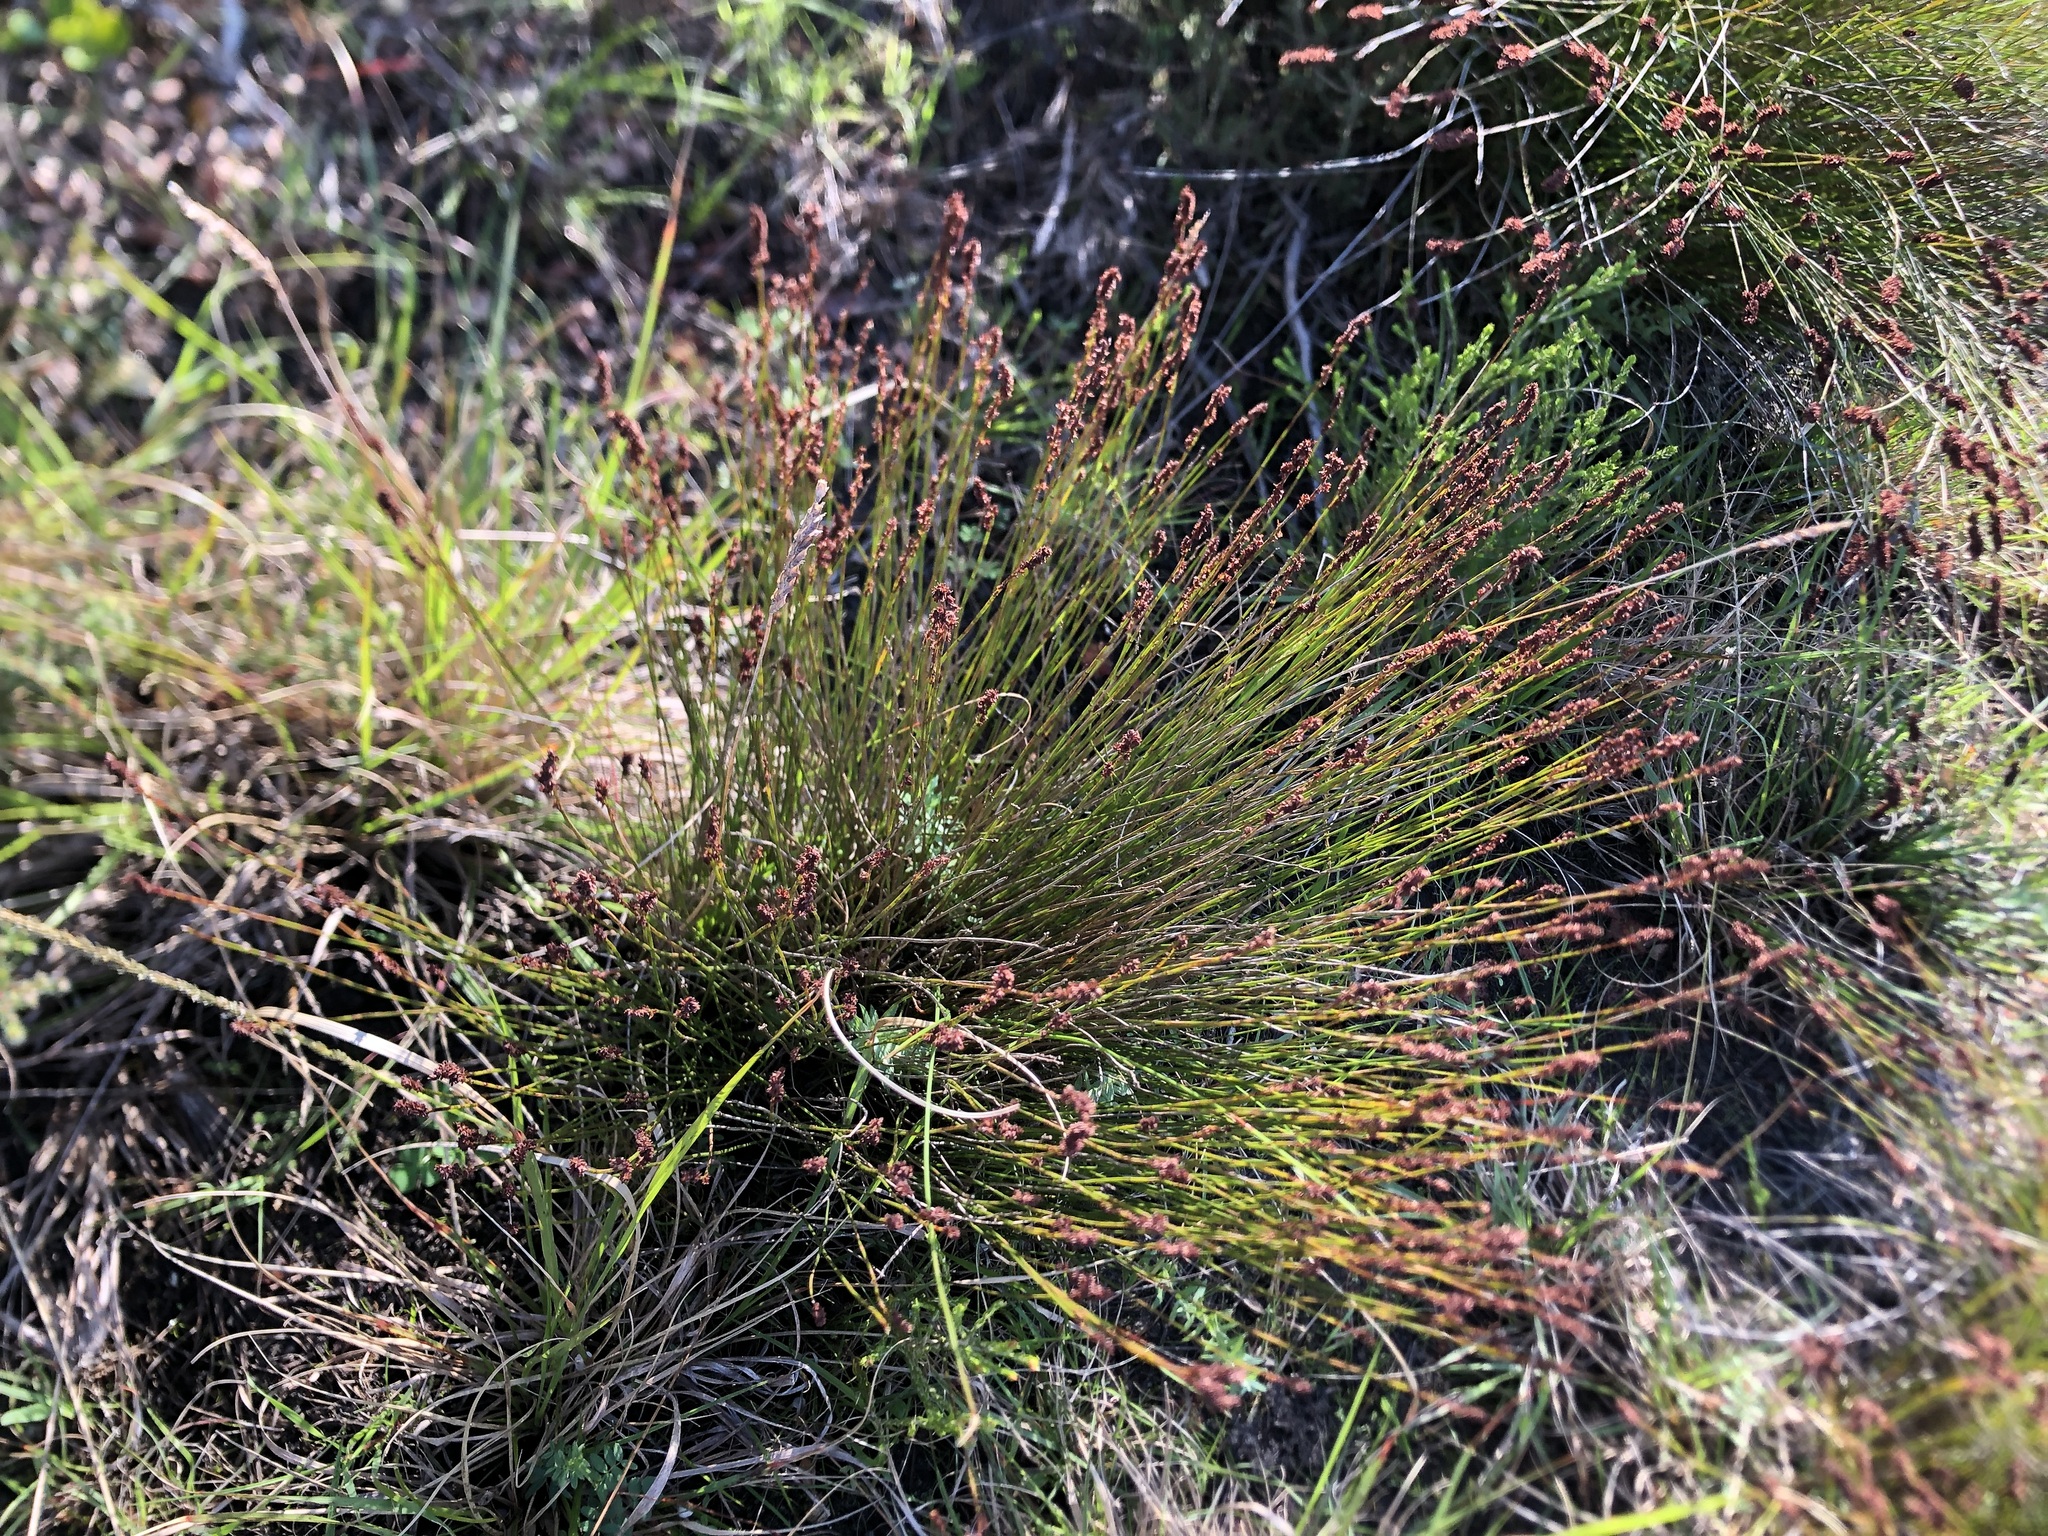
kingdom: Plantae
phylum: Tracheophyta
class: Liliopsida
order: Poales
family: Restionaceae
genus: Elegia
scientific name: Elegia nuda
